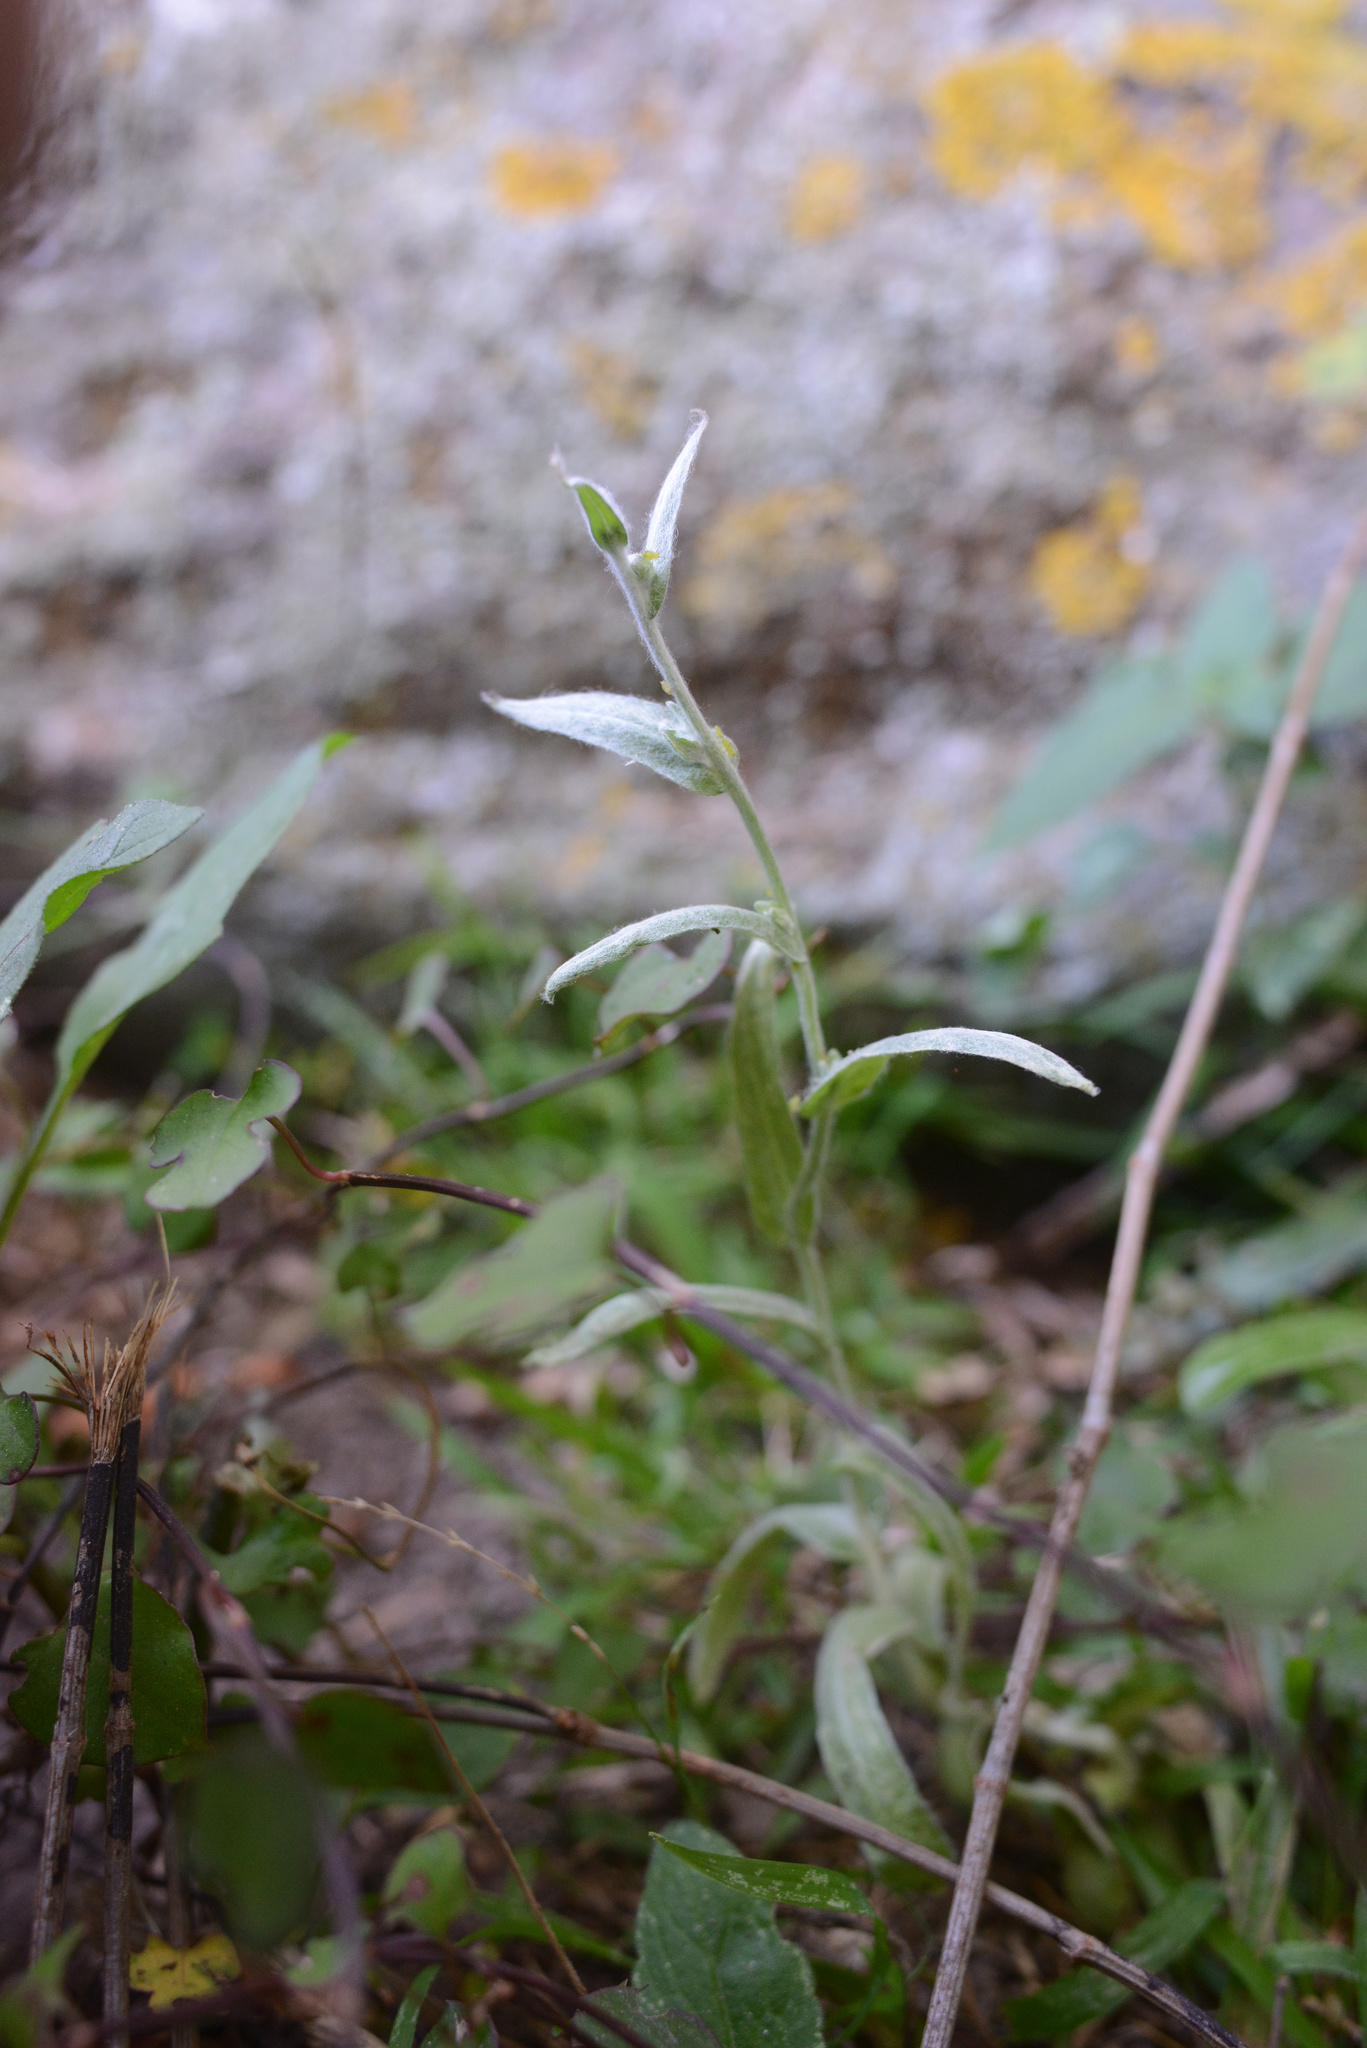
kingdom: Plantae
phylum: Tracheophyta
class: Magnoliopsida
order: Asterales
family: Asteraceae
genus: Helichrysum
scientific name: Helichrysum luteoalbum
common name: Daisy
